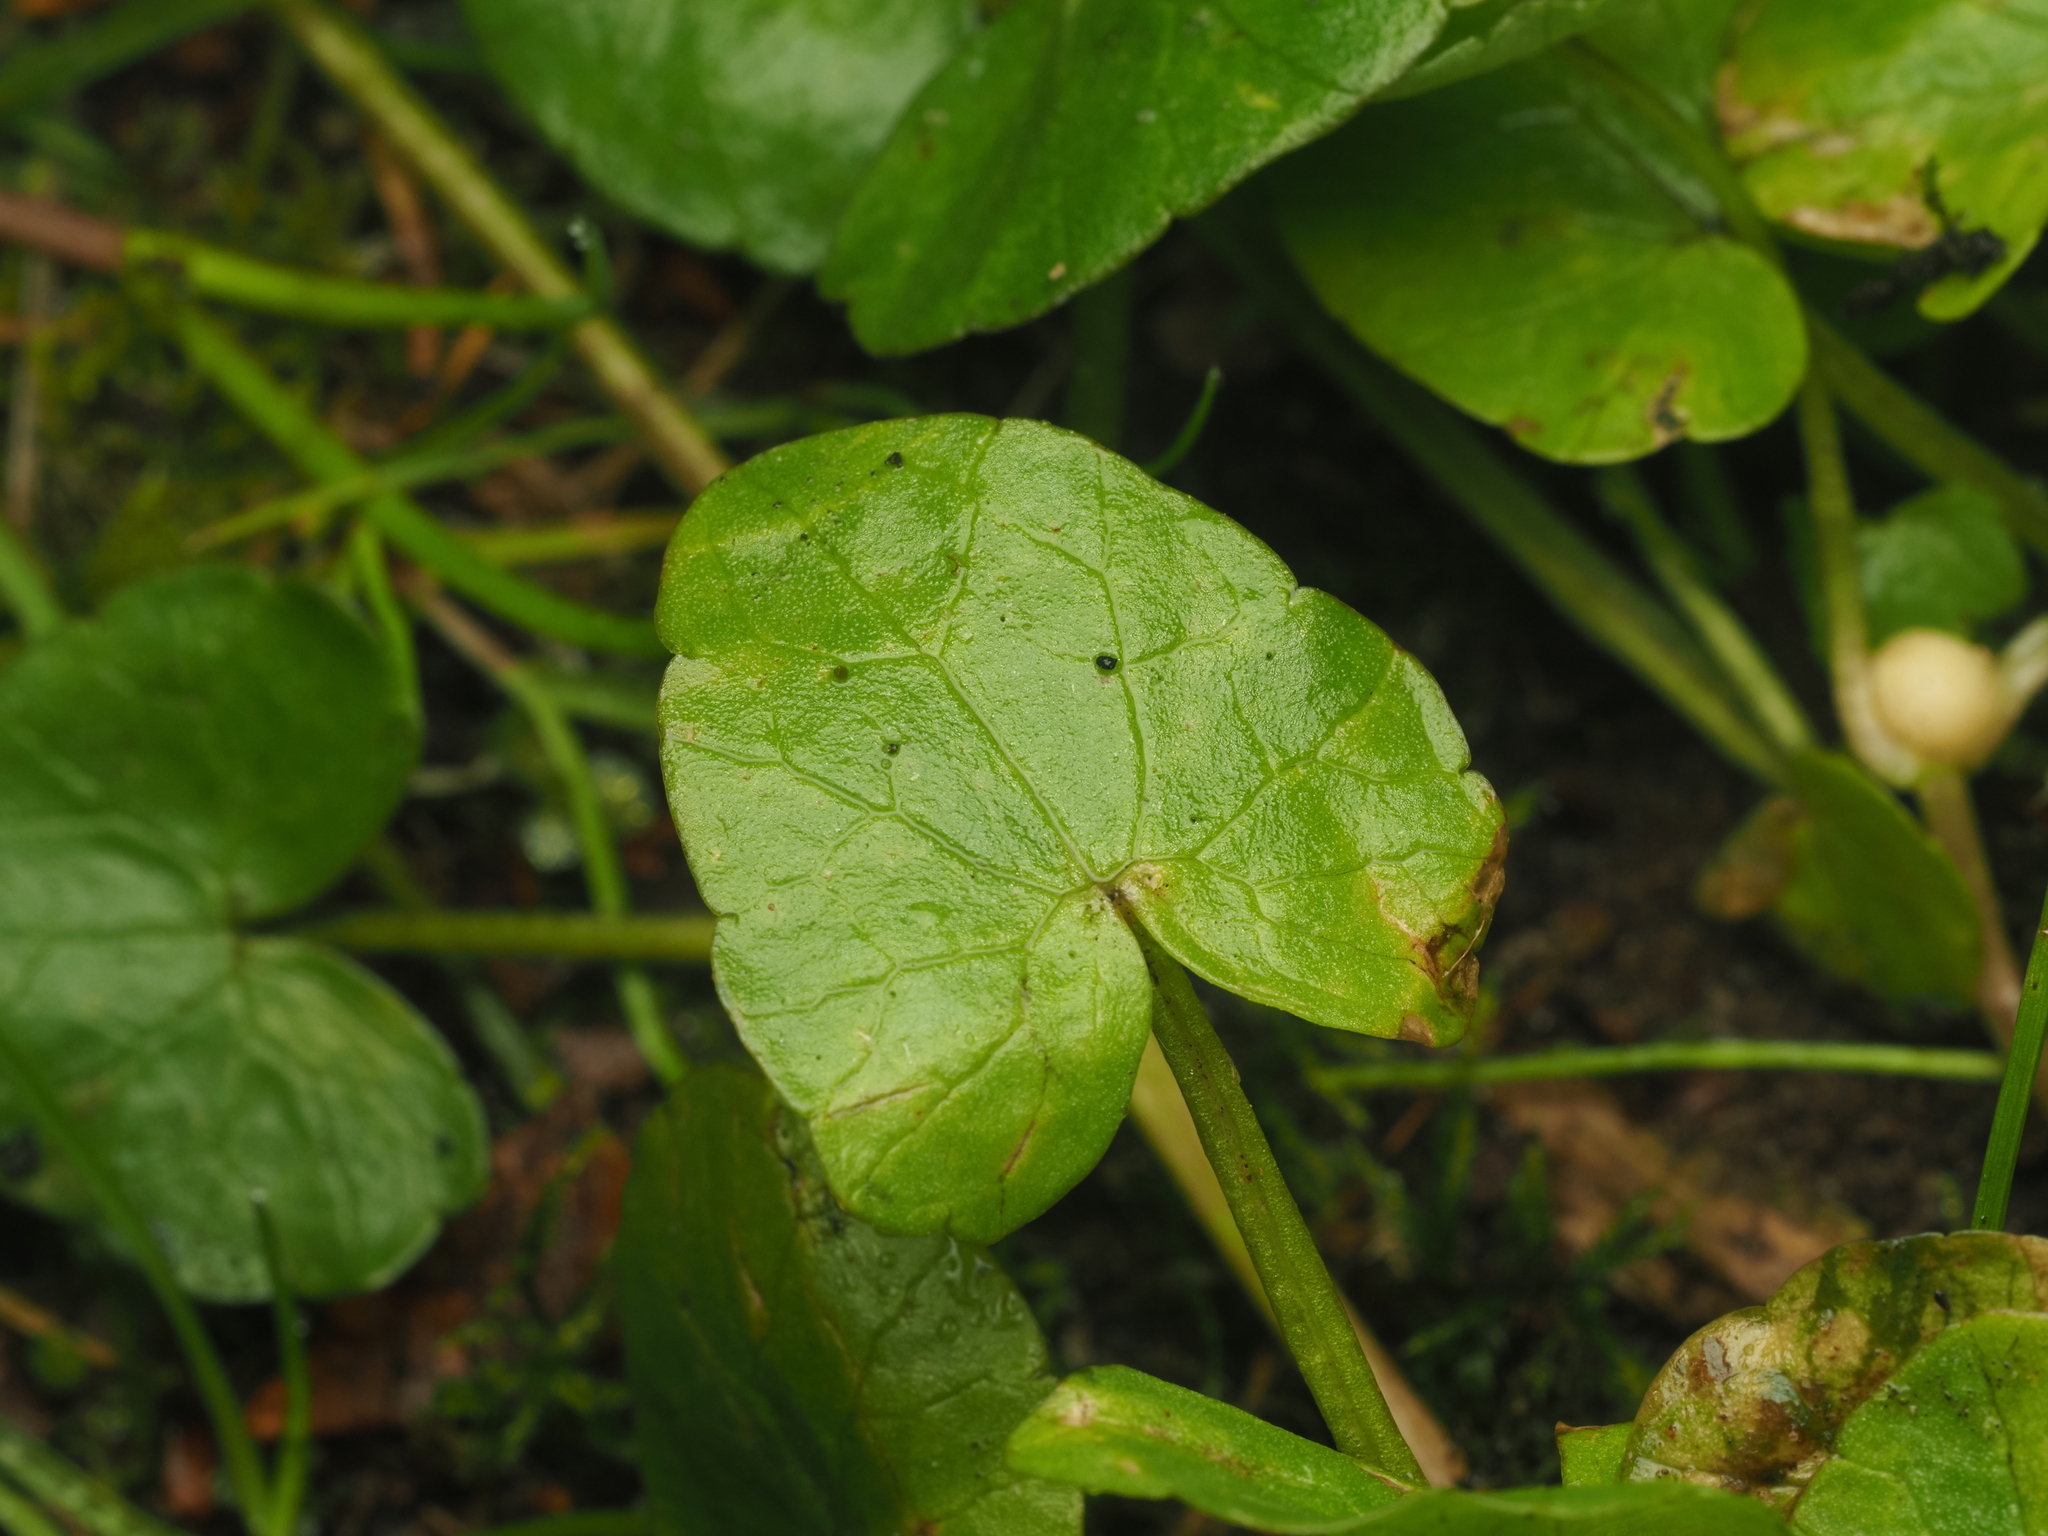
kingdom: Plantae
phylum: Tracheophyta
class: Magnoliopsida
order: Ranunculales
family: Ranunculaceae
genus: Ficaria
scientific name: Ficaria verna
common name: Lesser celandine
